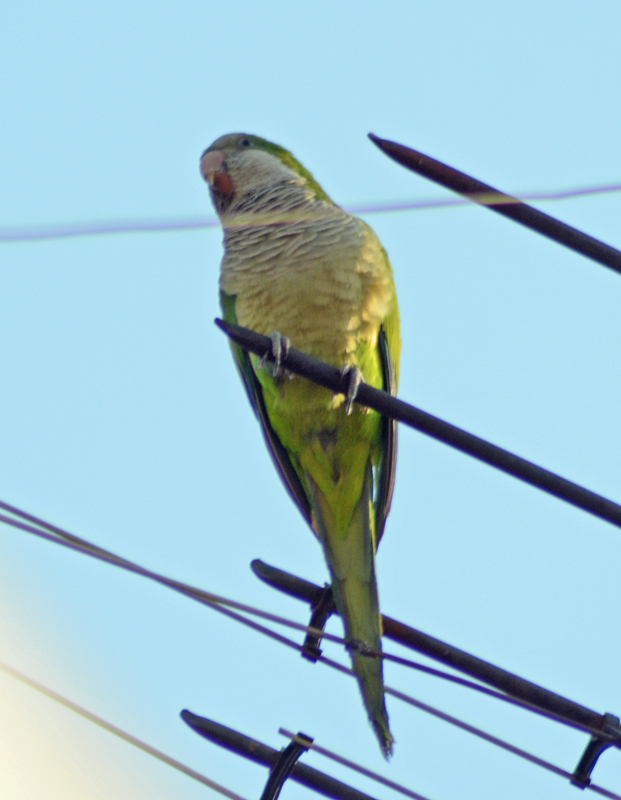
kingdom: Animalia
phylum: Chordata
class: Aves
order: Psittaciformes
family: Psittacidae
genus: Myiopsitta
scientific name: Myiopsitta monachus
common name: Monk parakeet
